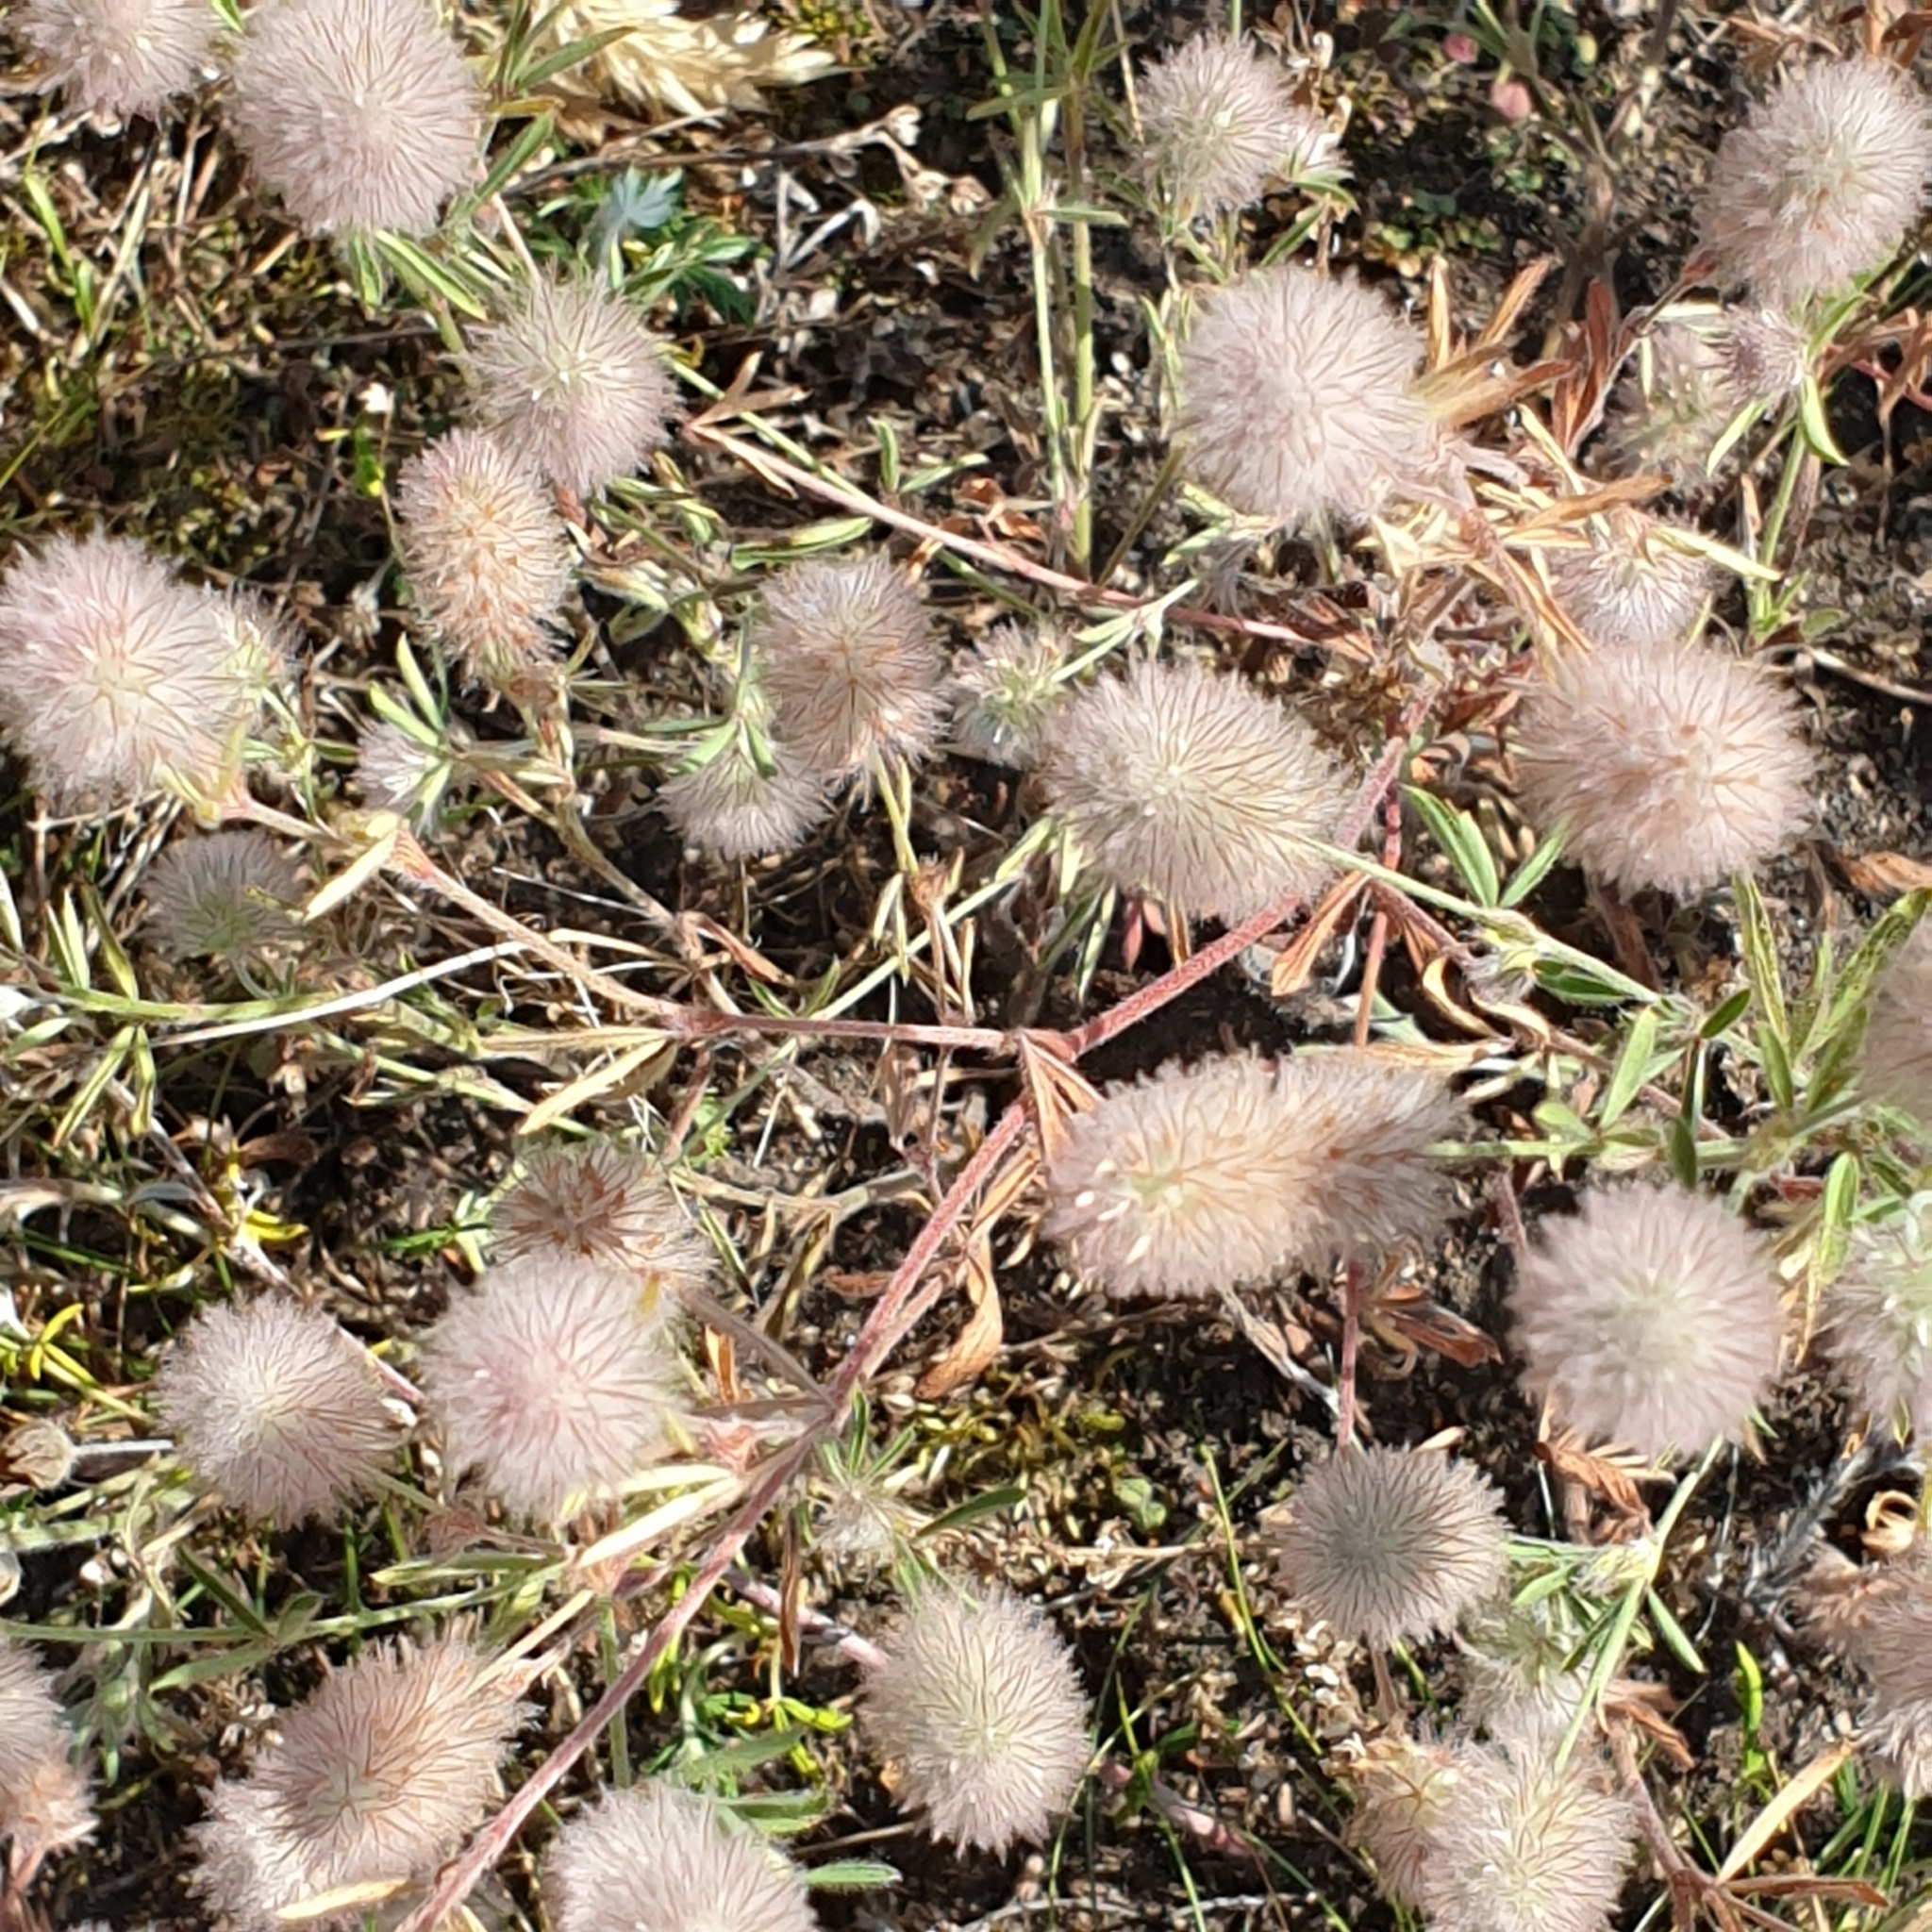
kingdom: Plantae
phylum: Tracheophyta
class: Magnoliopsida
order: Fabales
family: Fabaceae
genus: Trifolium
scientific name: Trifolium arvense
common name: Hare's-foot clover
